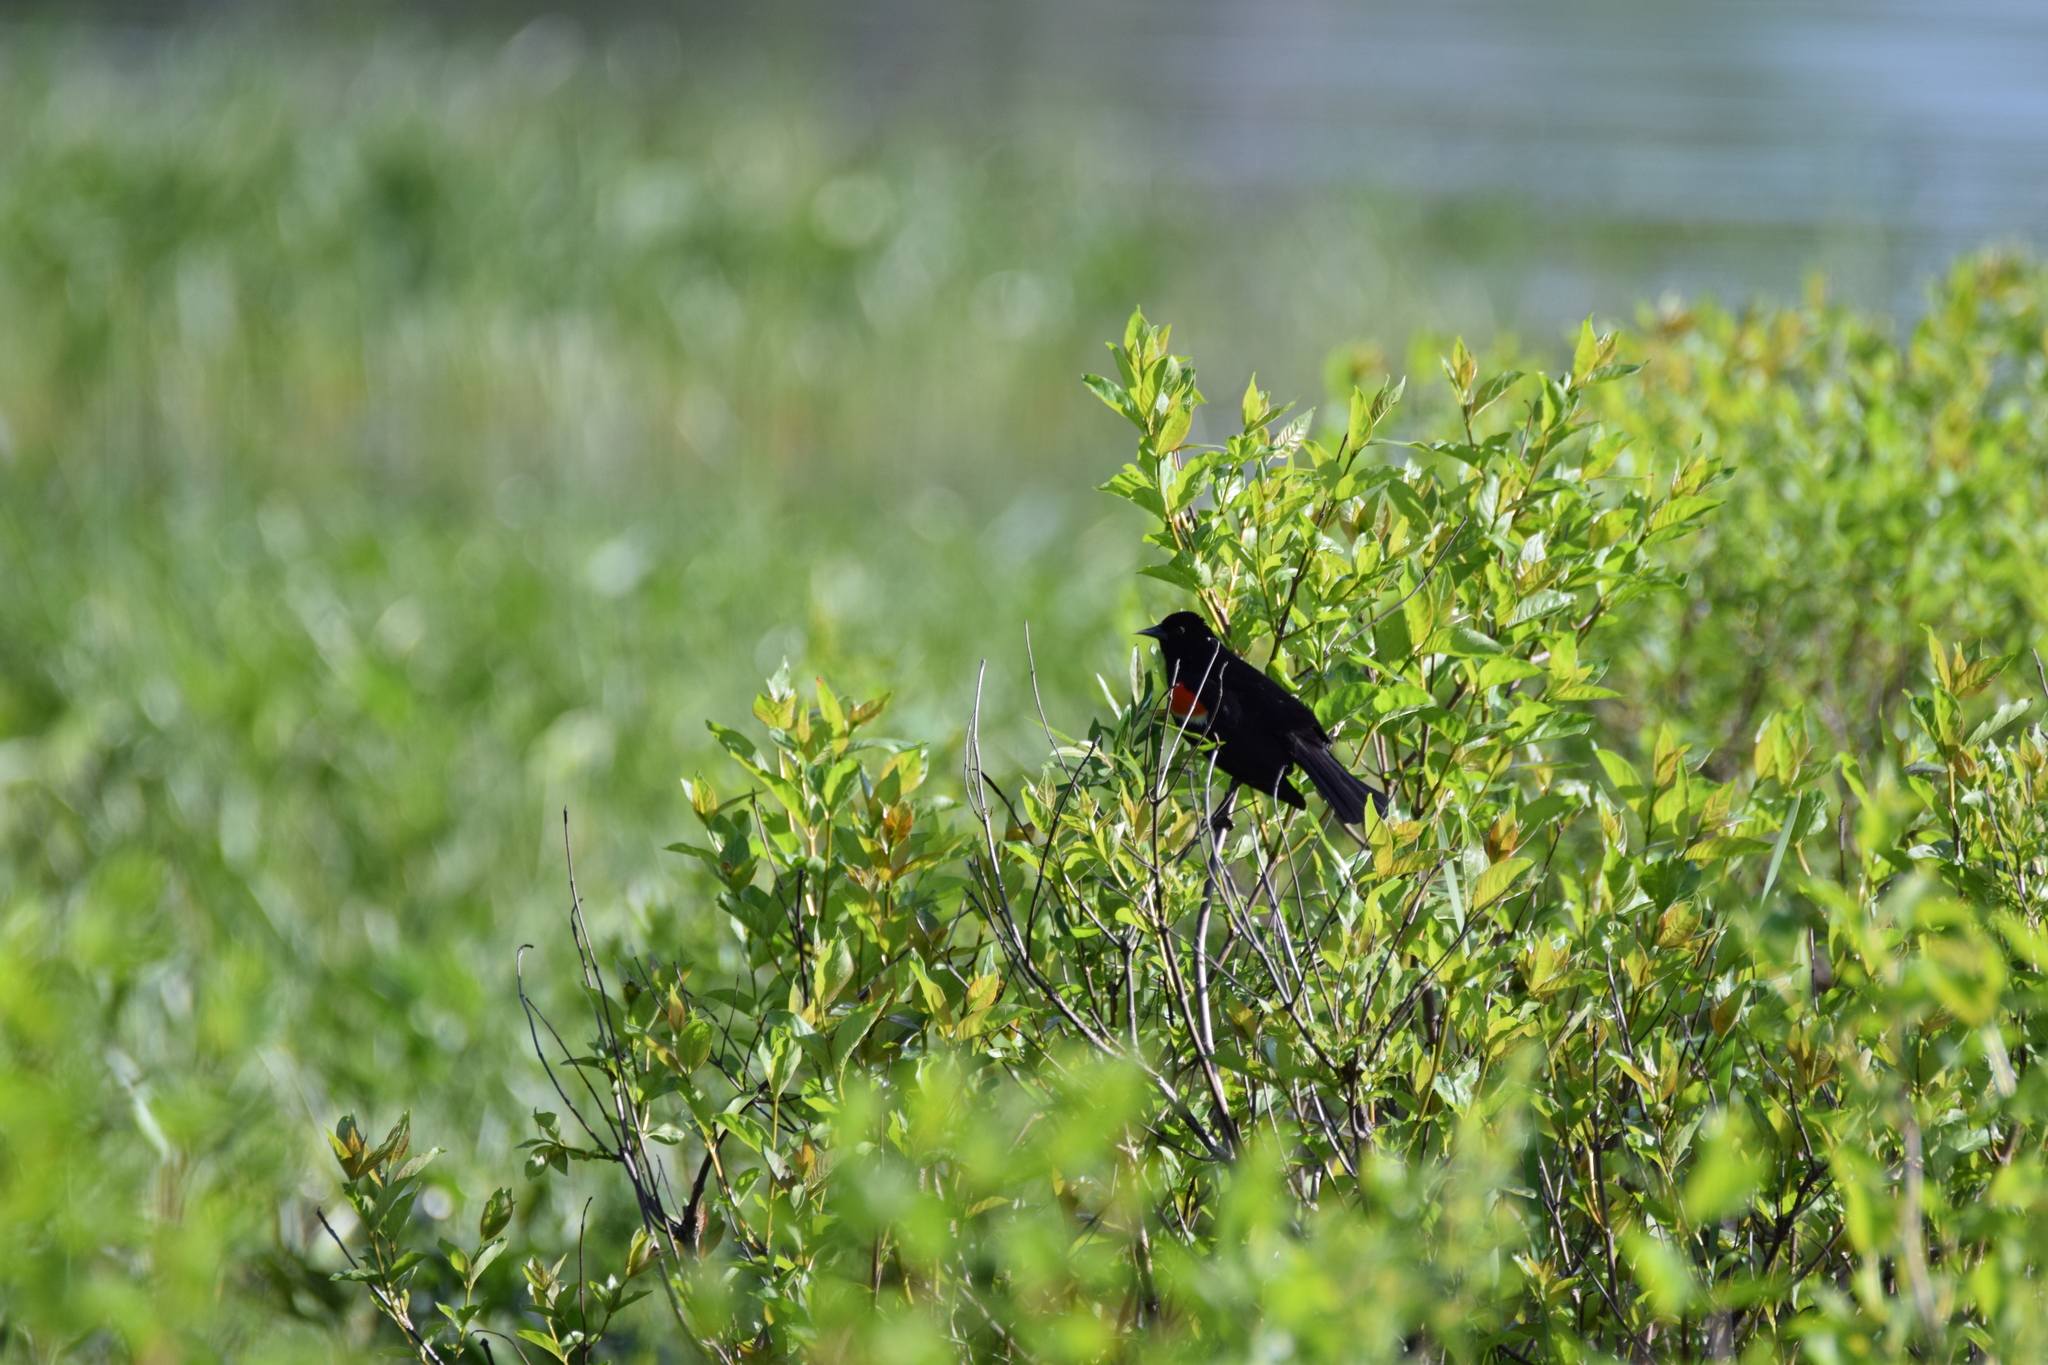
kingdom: Animalia
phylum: Chordata
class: Aves
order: Passeriformes
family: Icteridae
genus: Agelaius
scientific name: Agelaius phoeniceus
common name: Red-winged blackbird
